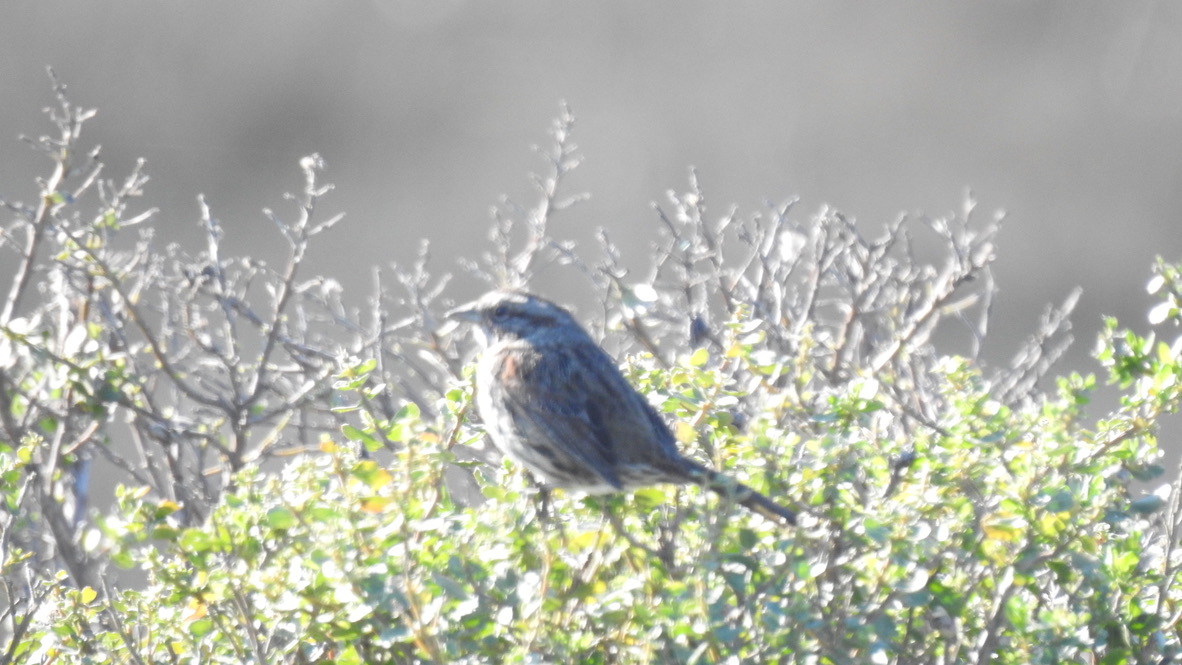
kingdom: Animalia
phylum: Chordata
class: Aves
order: Passeriformes
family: Passerellidae
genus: Melospiza
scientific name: Melospiza melodia
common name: Song sparrow
